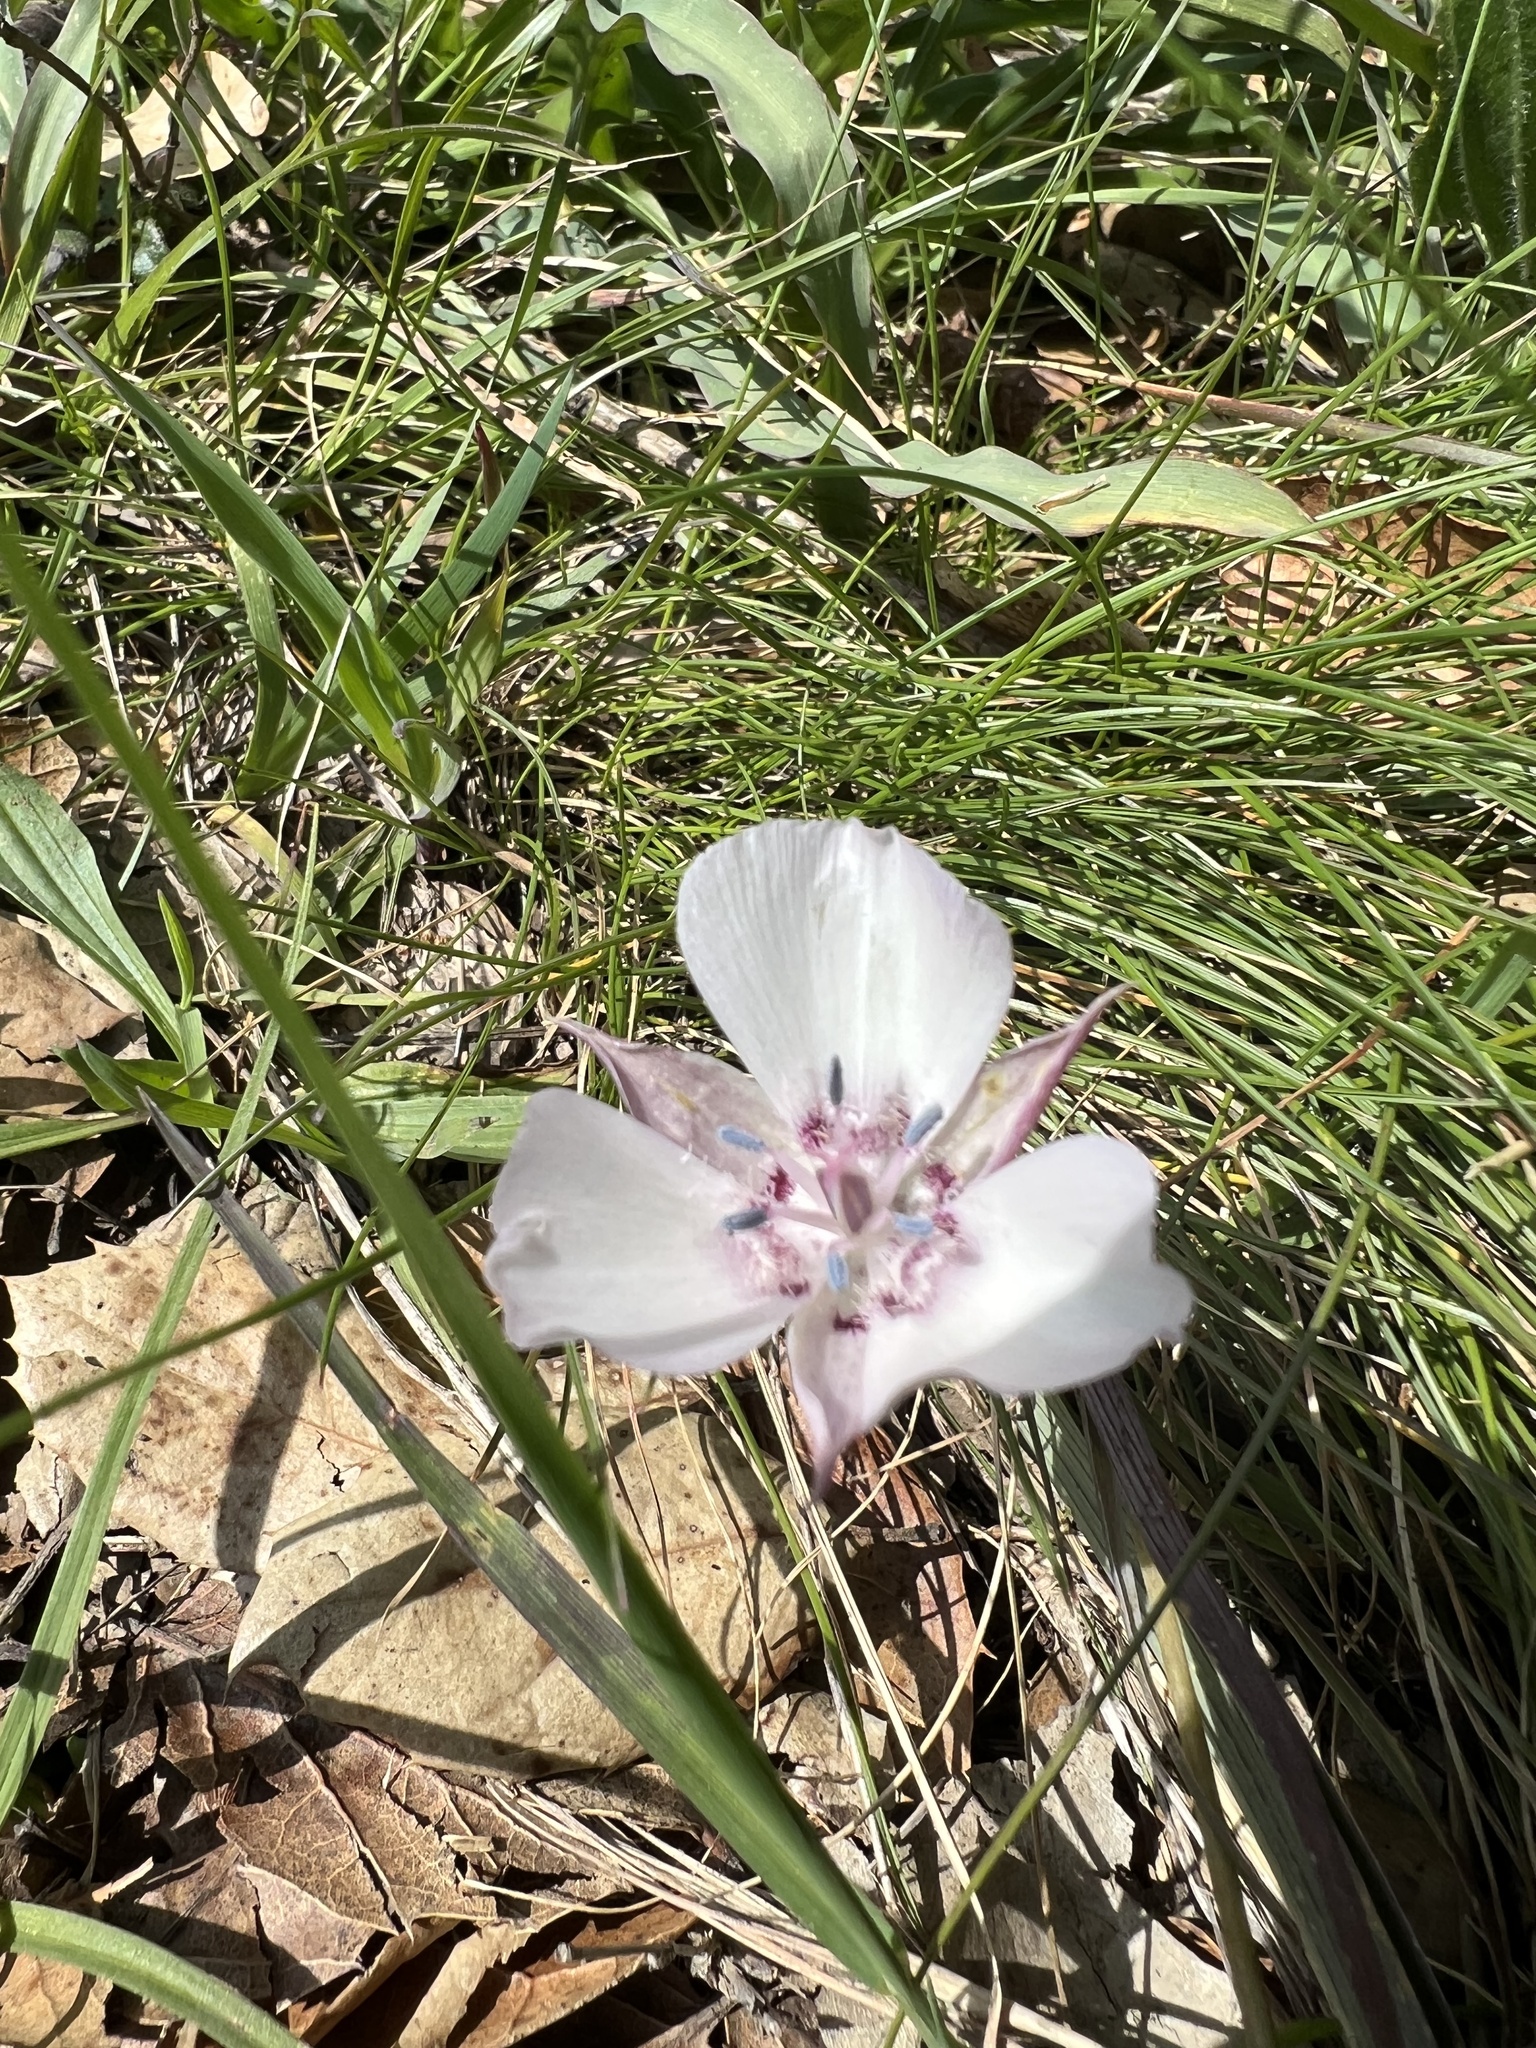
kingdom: Plantae
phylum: Tracheophyta
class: Liliopsida
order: Liliales
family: Liliaceae
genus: Calochortus
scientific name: Calochortus umbellatus
